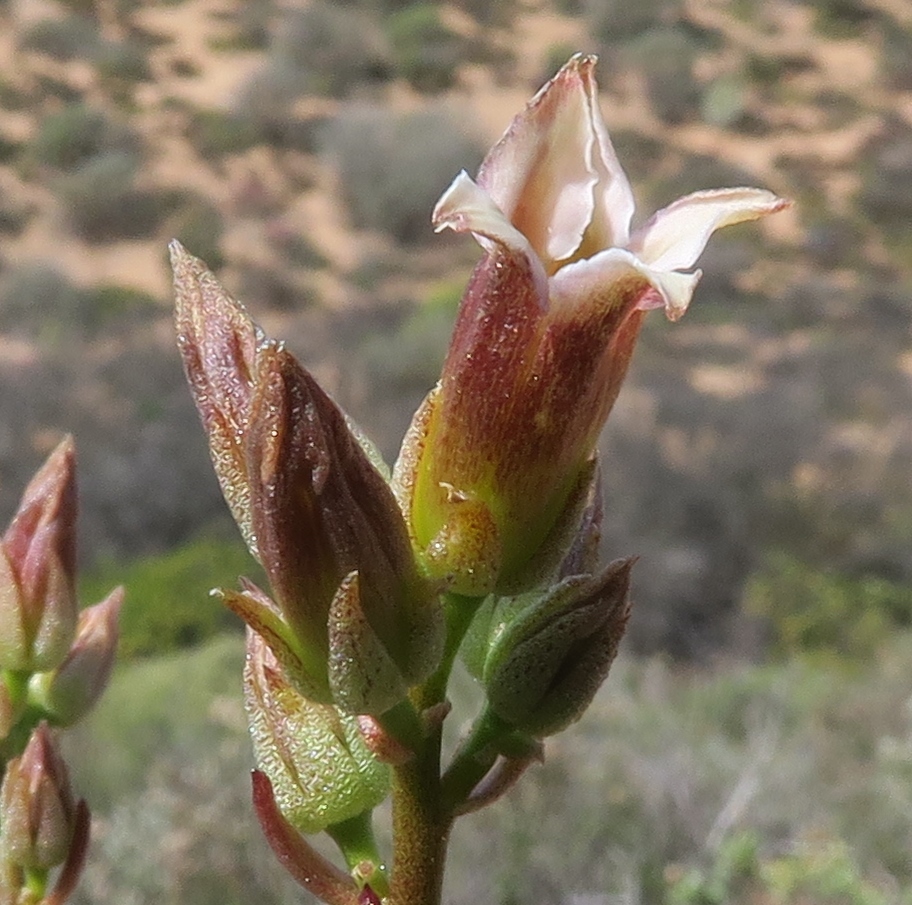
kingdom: Plantae
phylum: Tracheophyta
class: Magnoliopsida
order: Saxifragales
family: Crassulaceae
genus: Tylecodon
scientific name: Tylecodon racemosus
